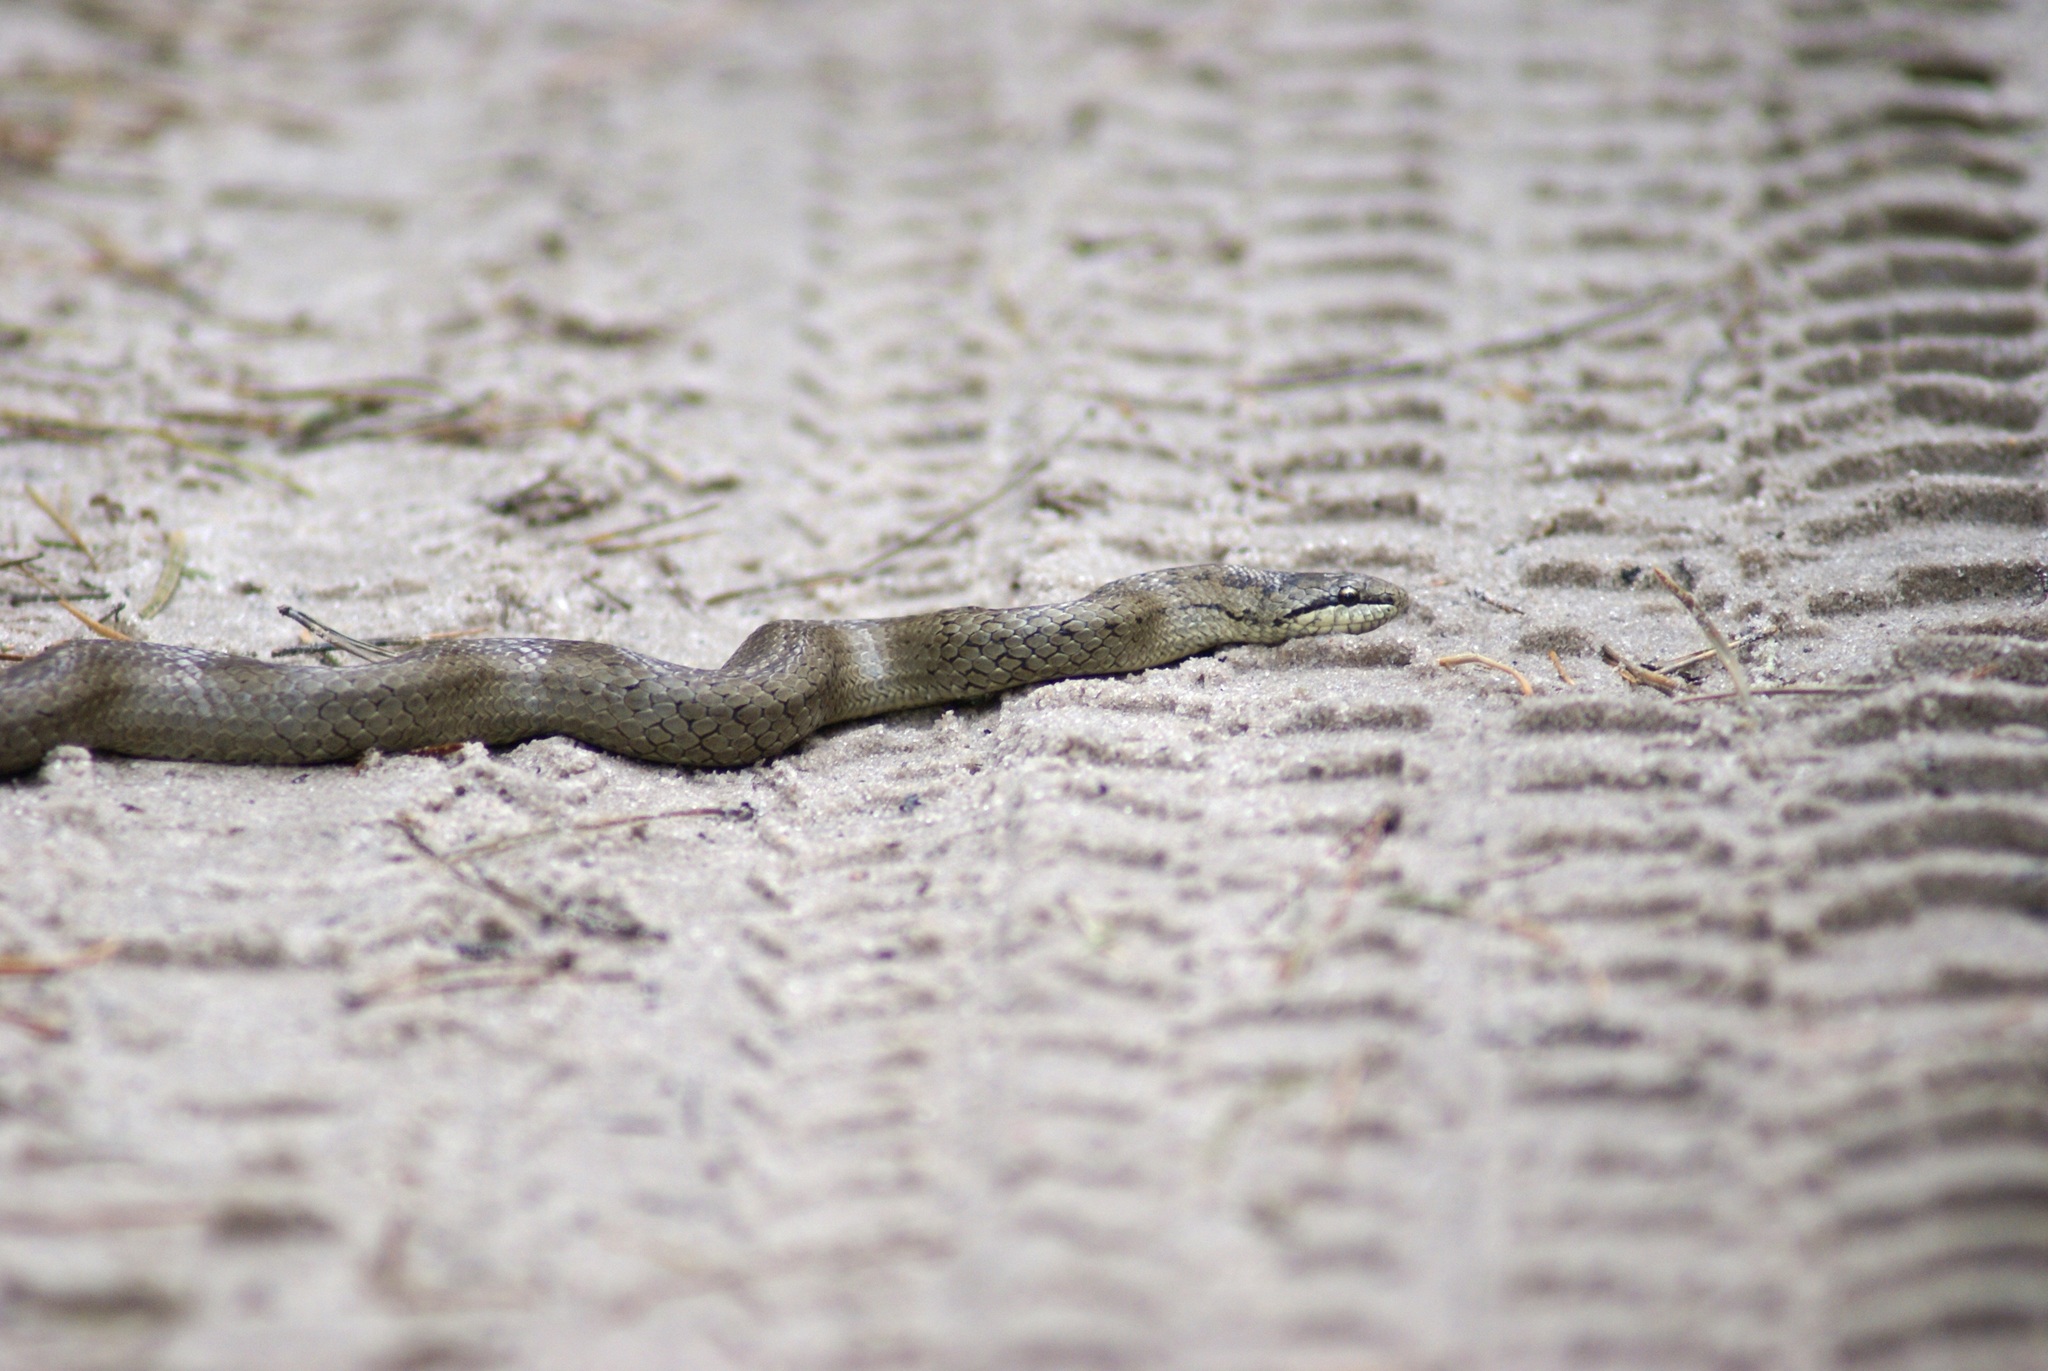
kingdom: Animalia
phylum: Chordata
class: Squamata
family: Colubridae
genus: Coronella
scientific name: Coronella austriaca
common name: Smooth snake
